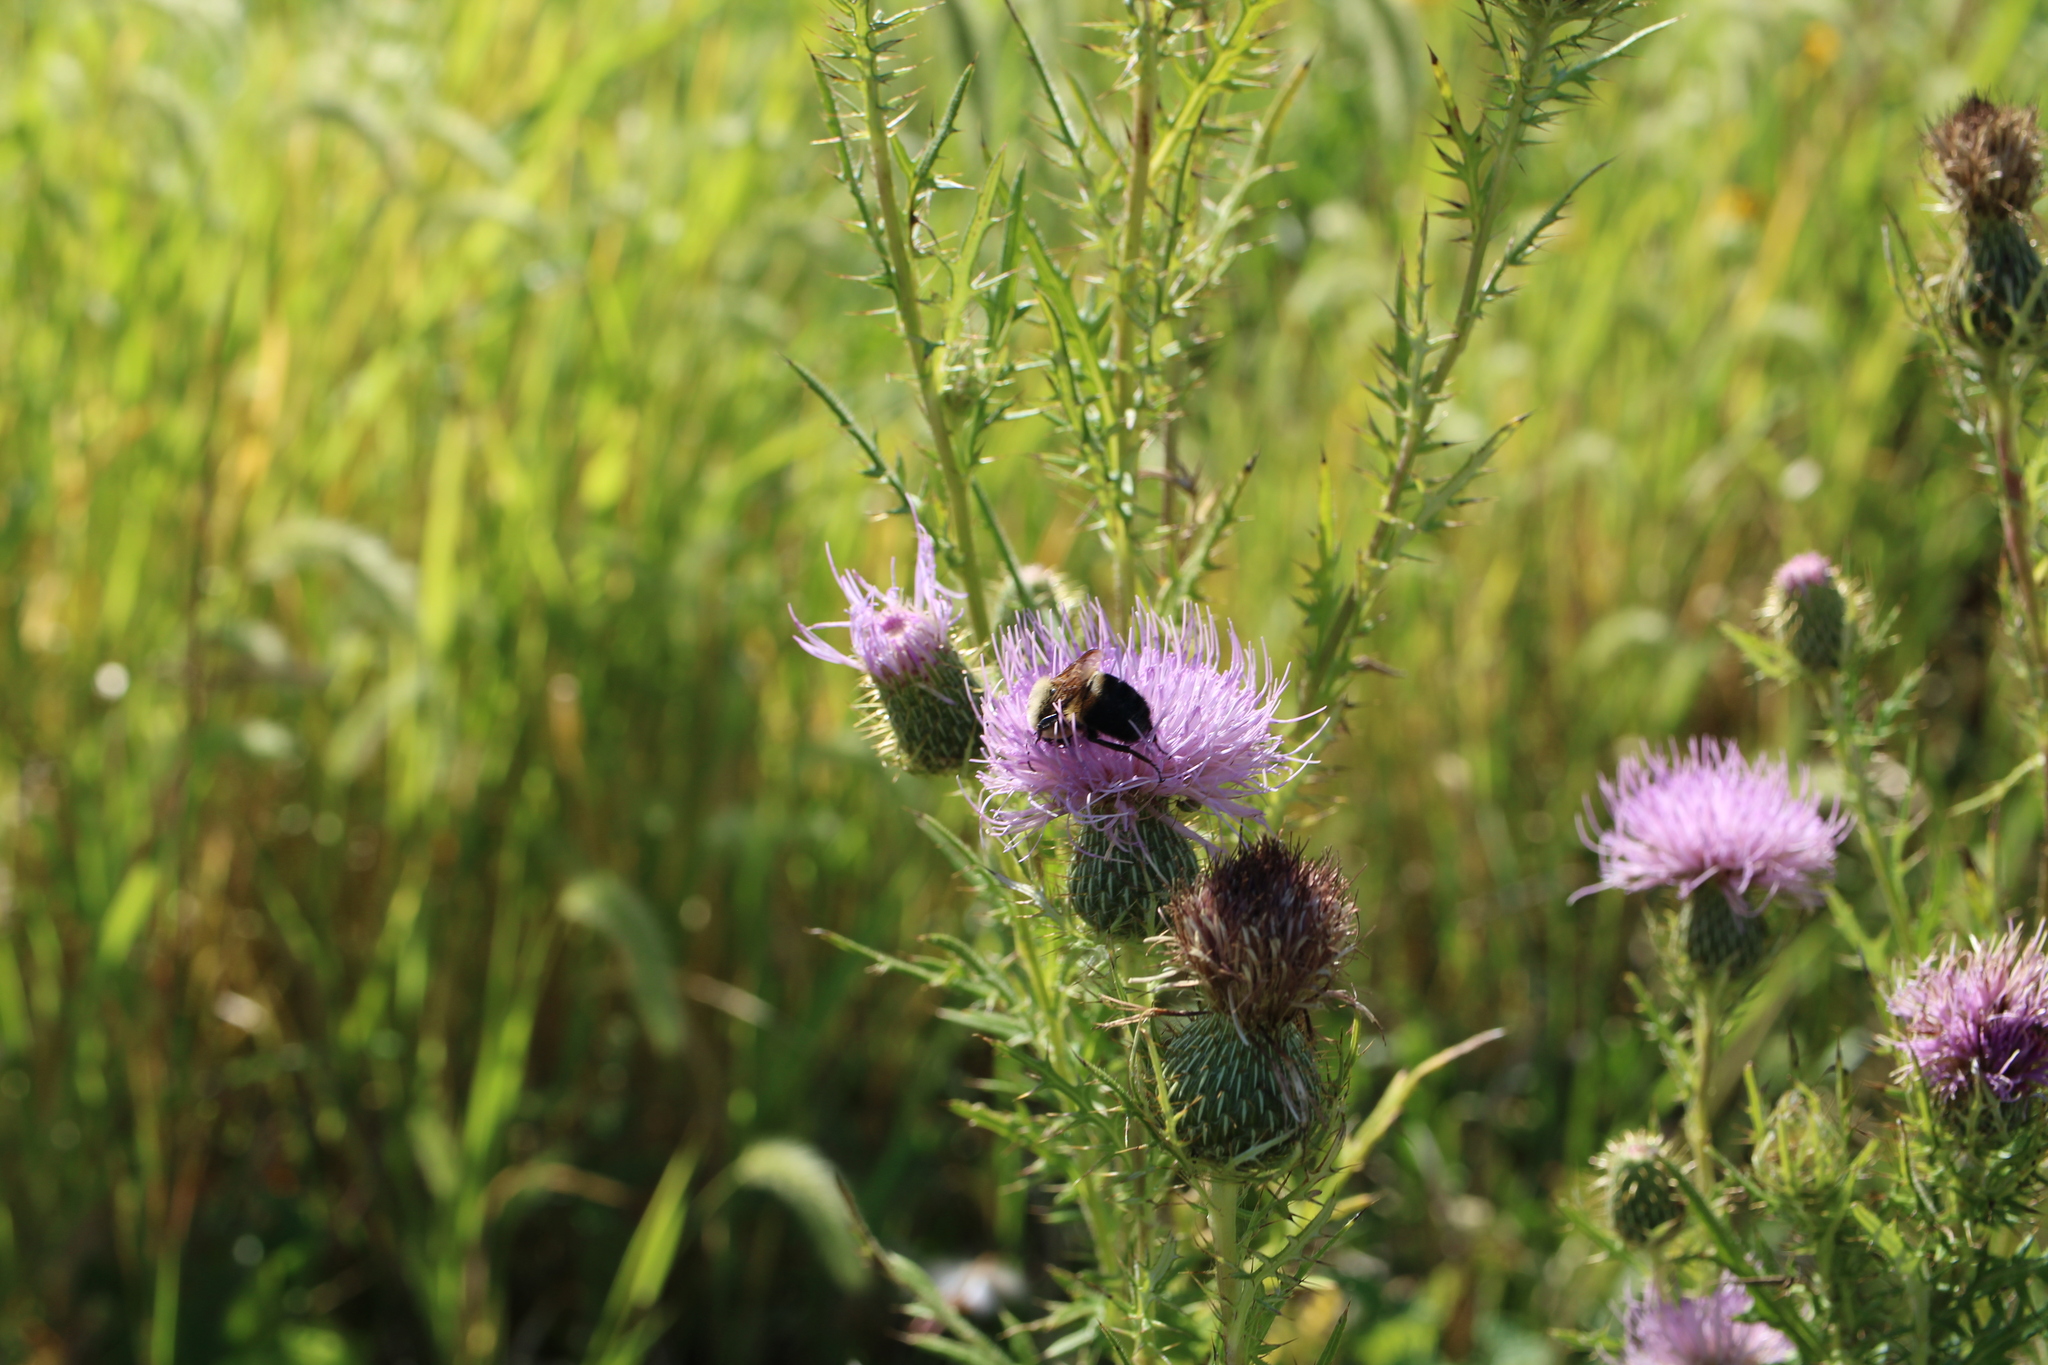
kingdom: Animalia
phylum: Arthropoda
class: Insecta
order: Hymenoptera
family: Apidae
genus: Bombus
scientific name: Bombus griseocollis
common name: Brown-belted bumble bee
